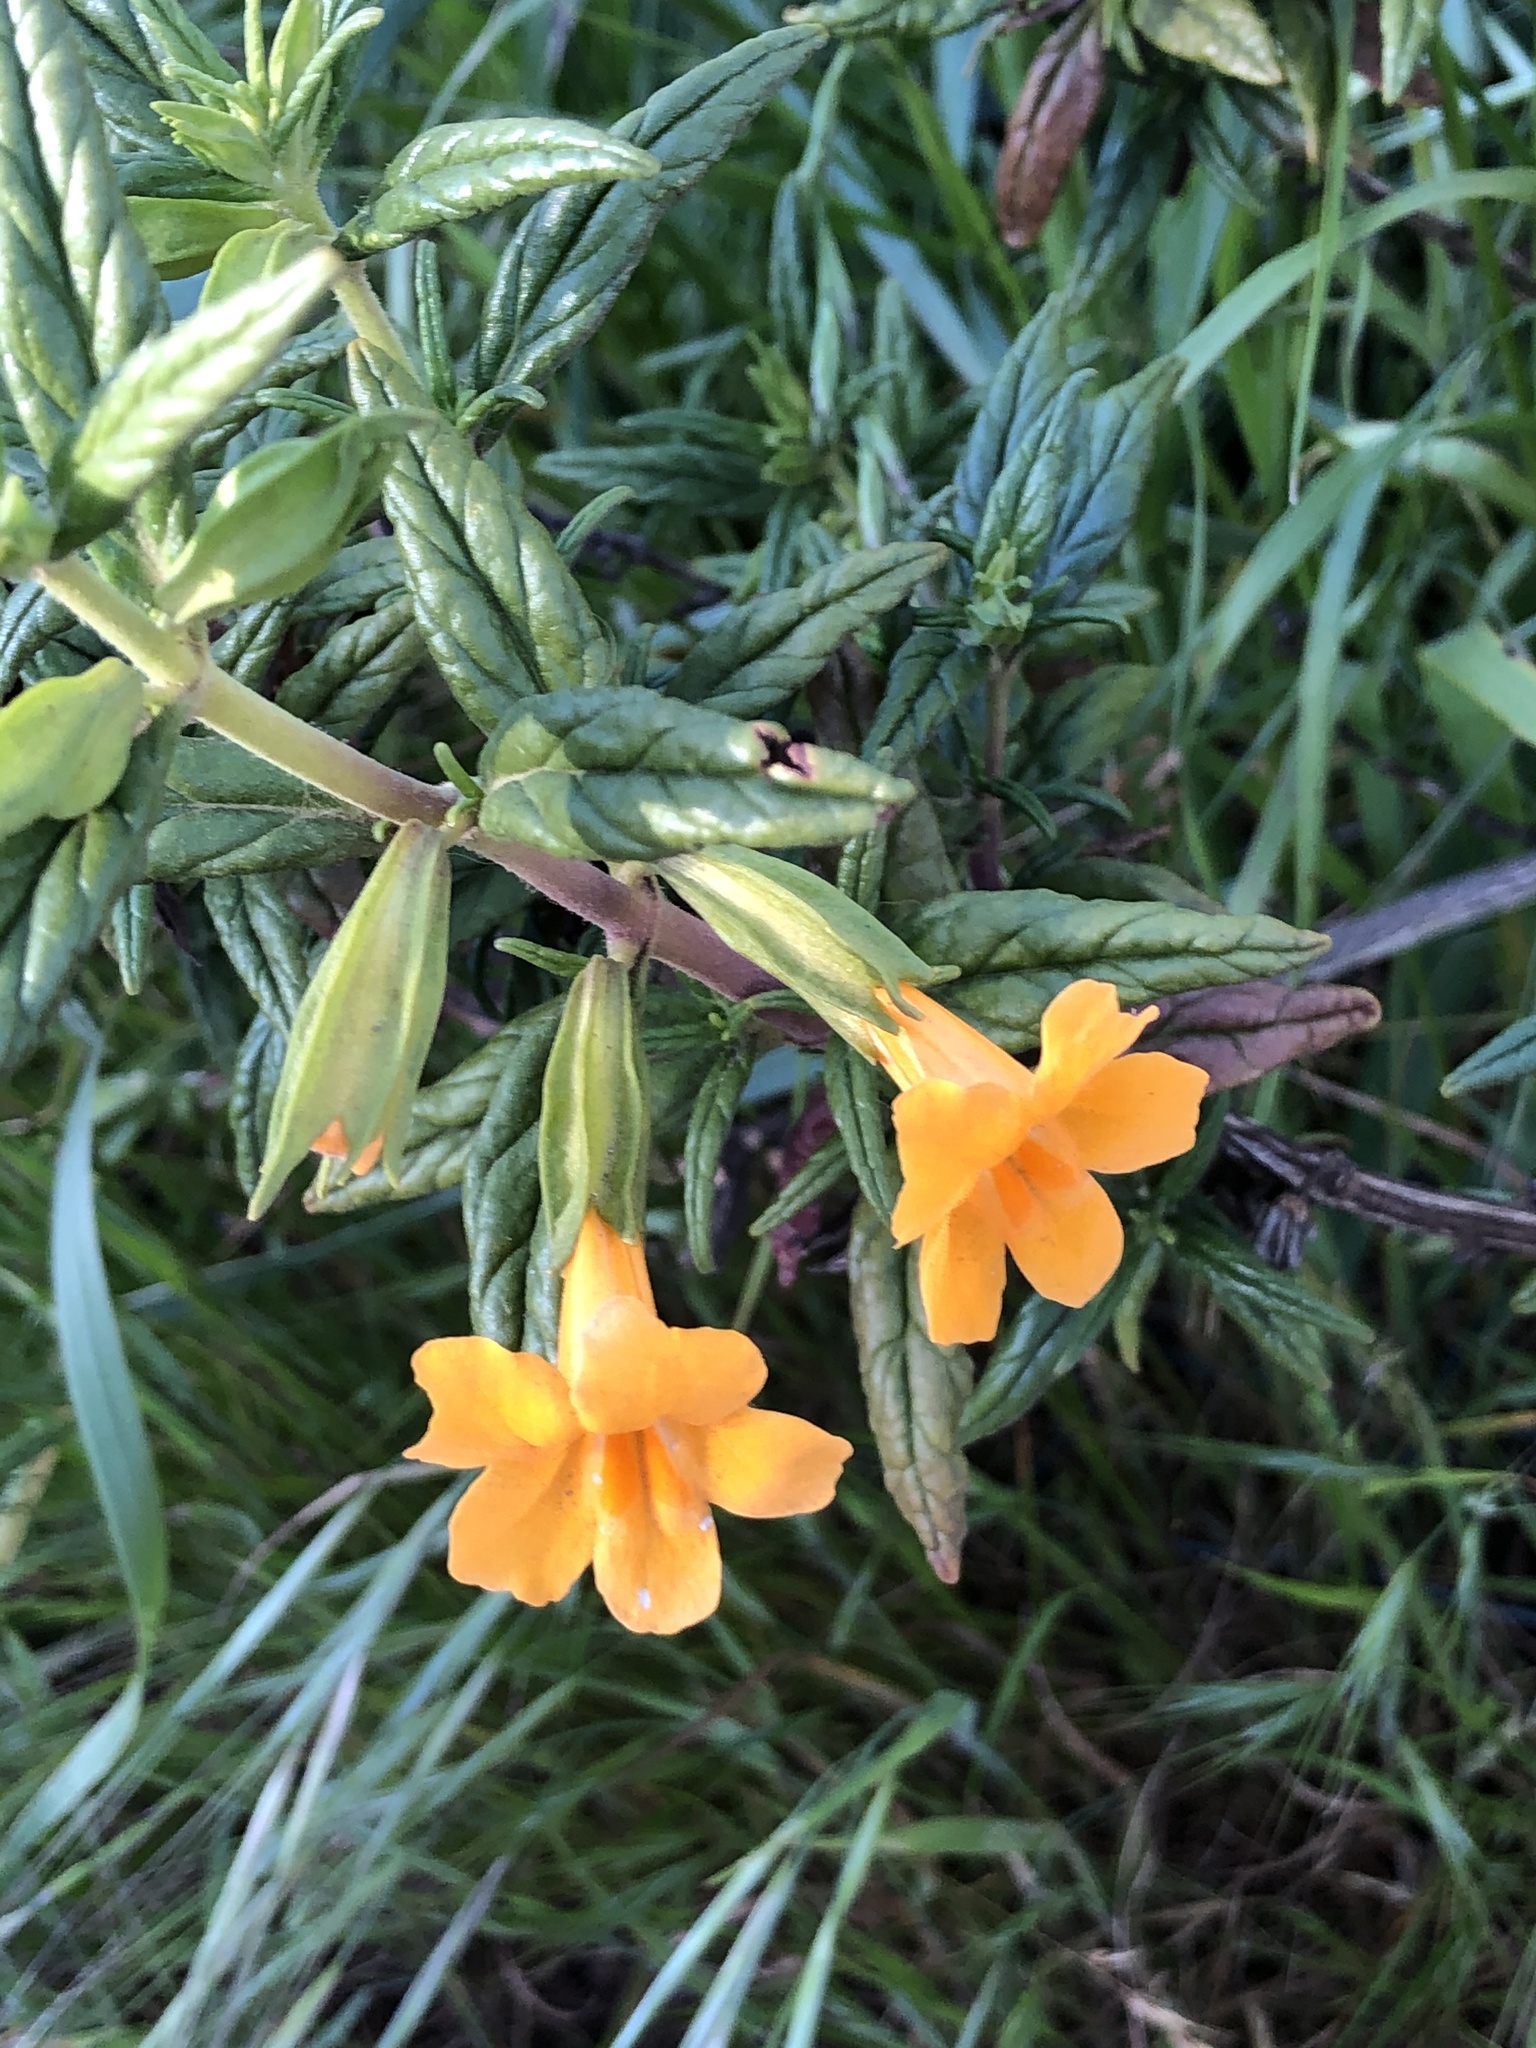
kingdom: Plantae
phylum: Tracheophyta
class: Magnoliopsida
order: Lamiales
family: Phrymaceae
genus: Diplacus
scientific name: Diplacus aurantiacus
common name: Bush monkey-flower
